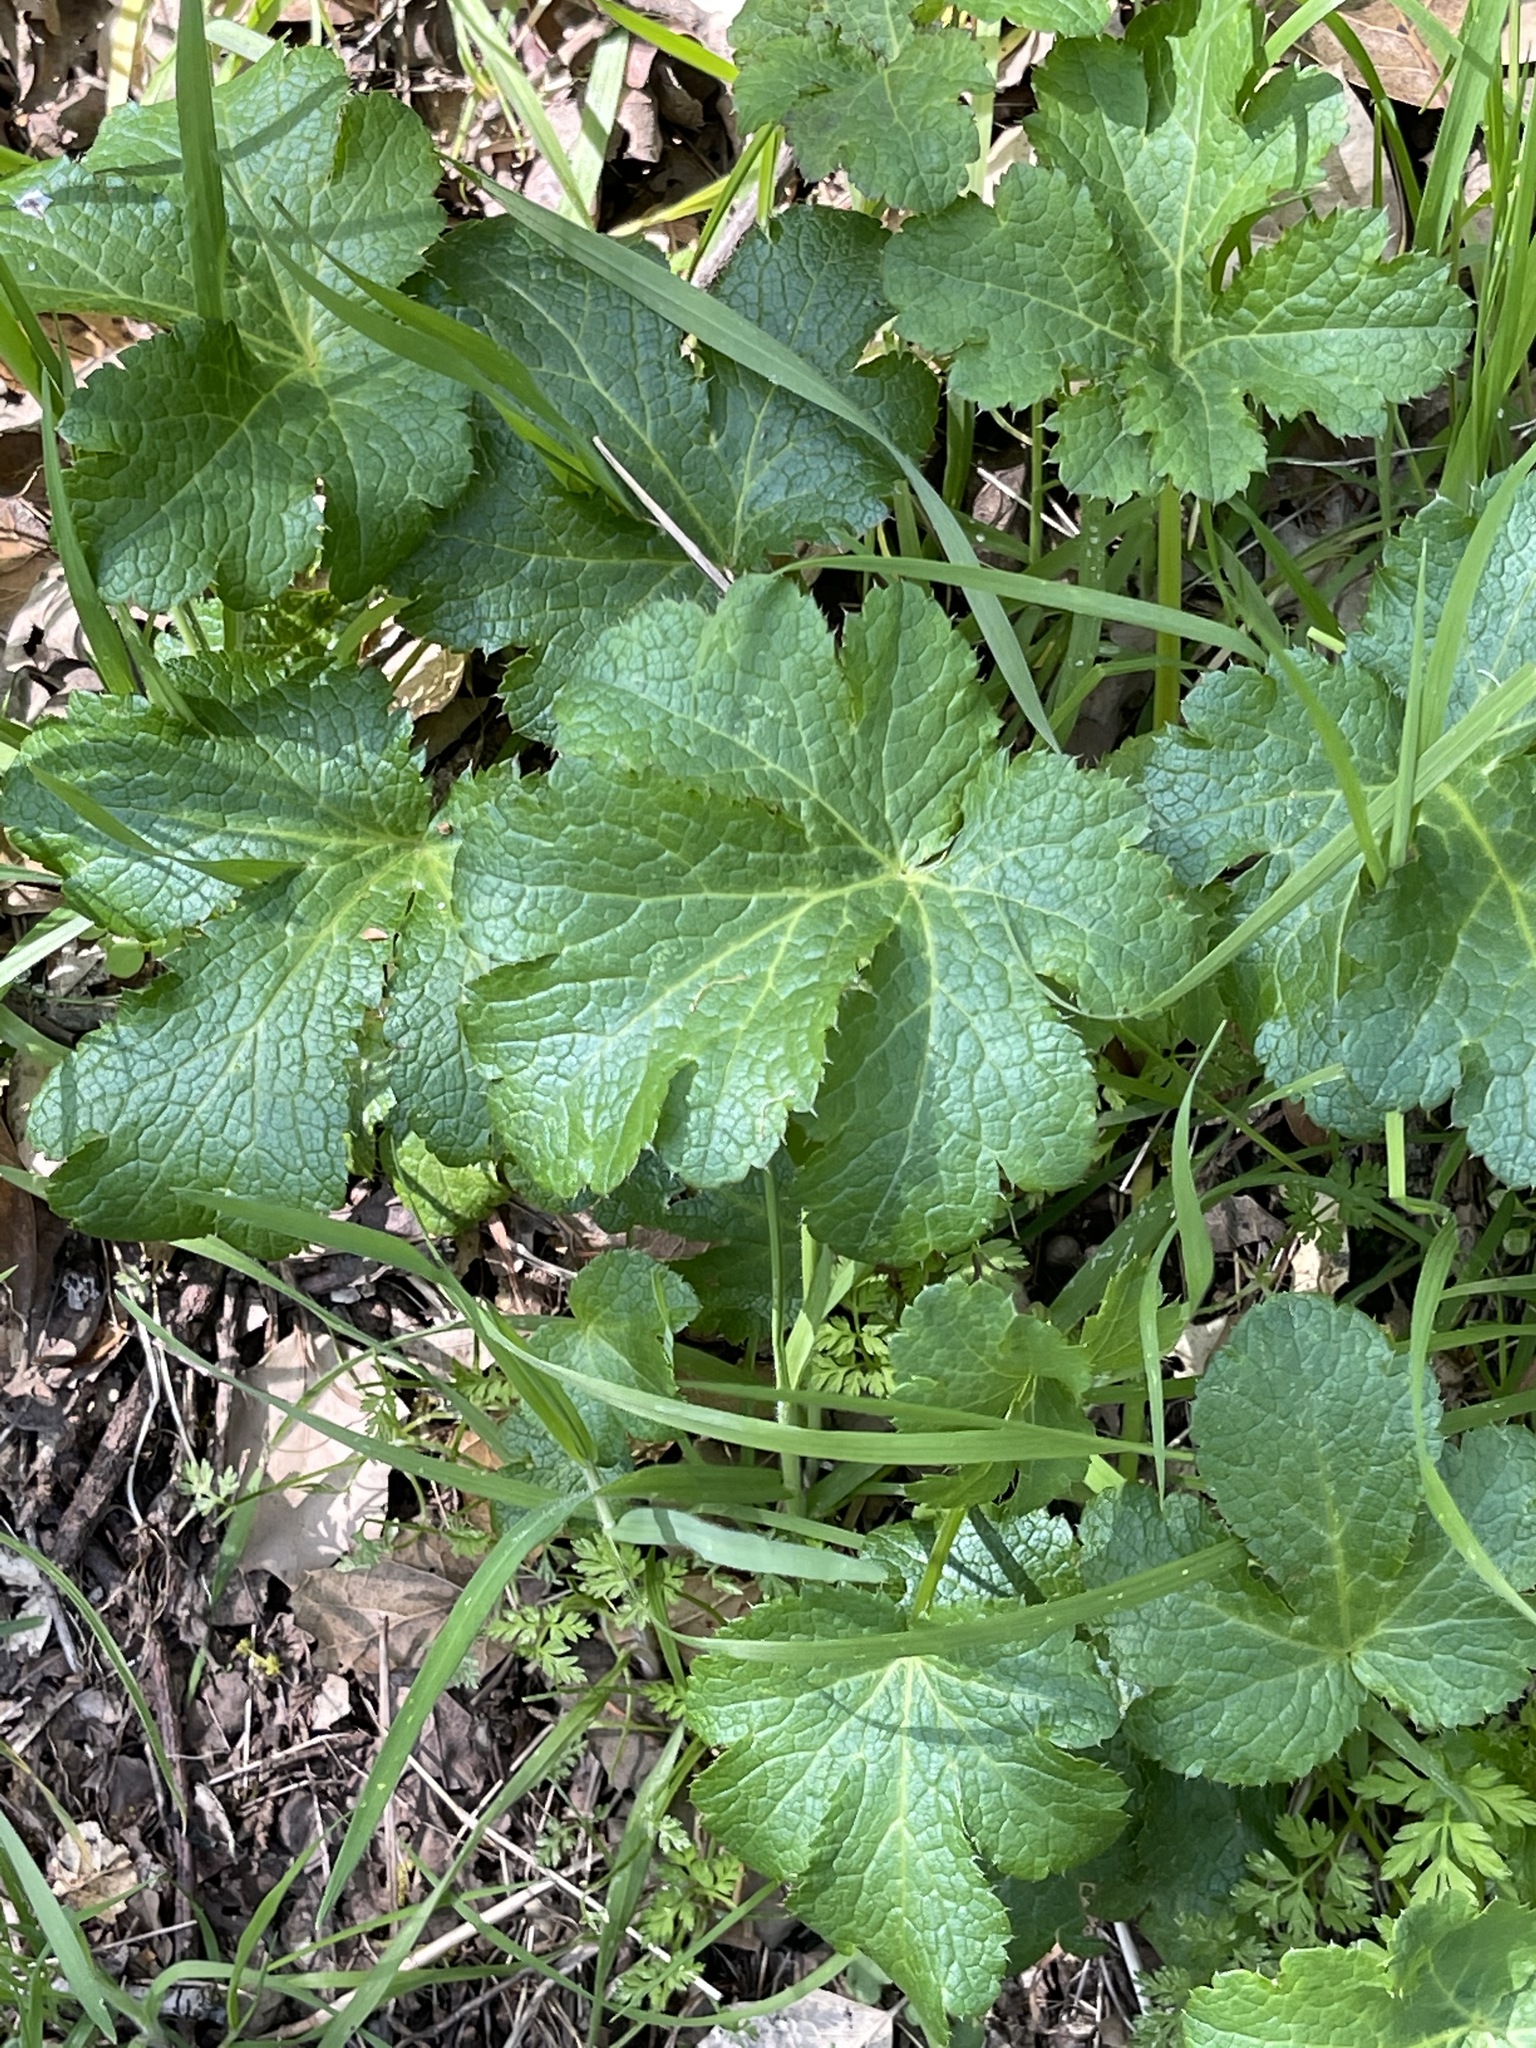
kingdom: Plantae
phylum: Tracheophyta
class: Magnoliopsida
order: Apiales
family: Apiaceae
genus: Sanicula
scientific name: Sanicula crassicaulis
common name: Western snakeroot
